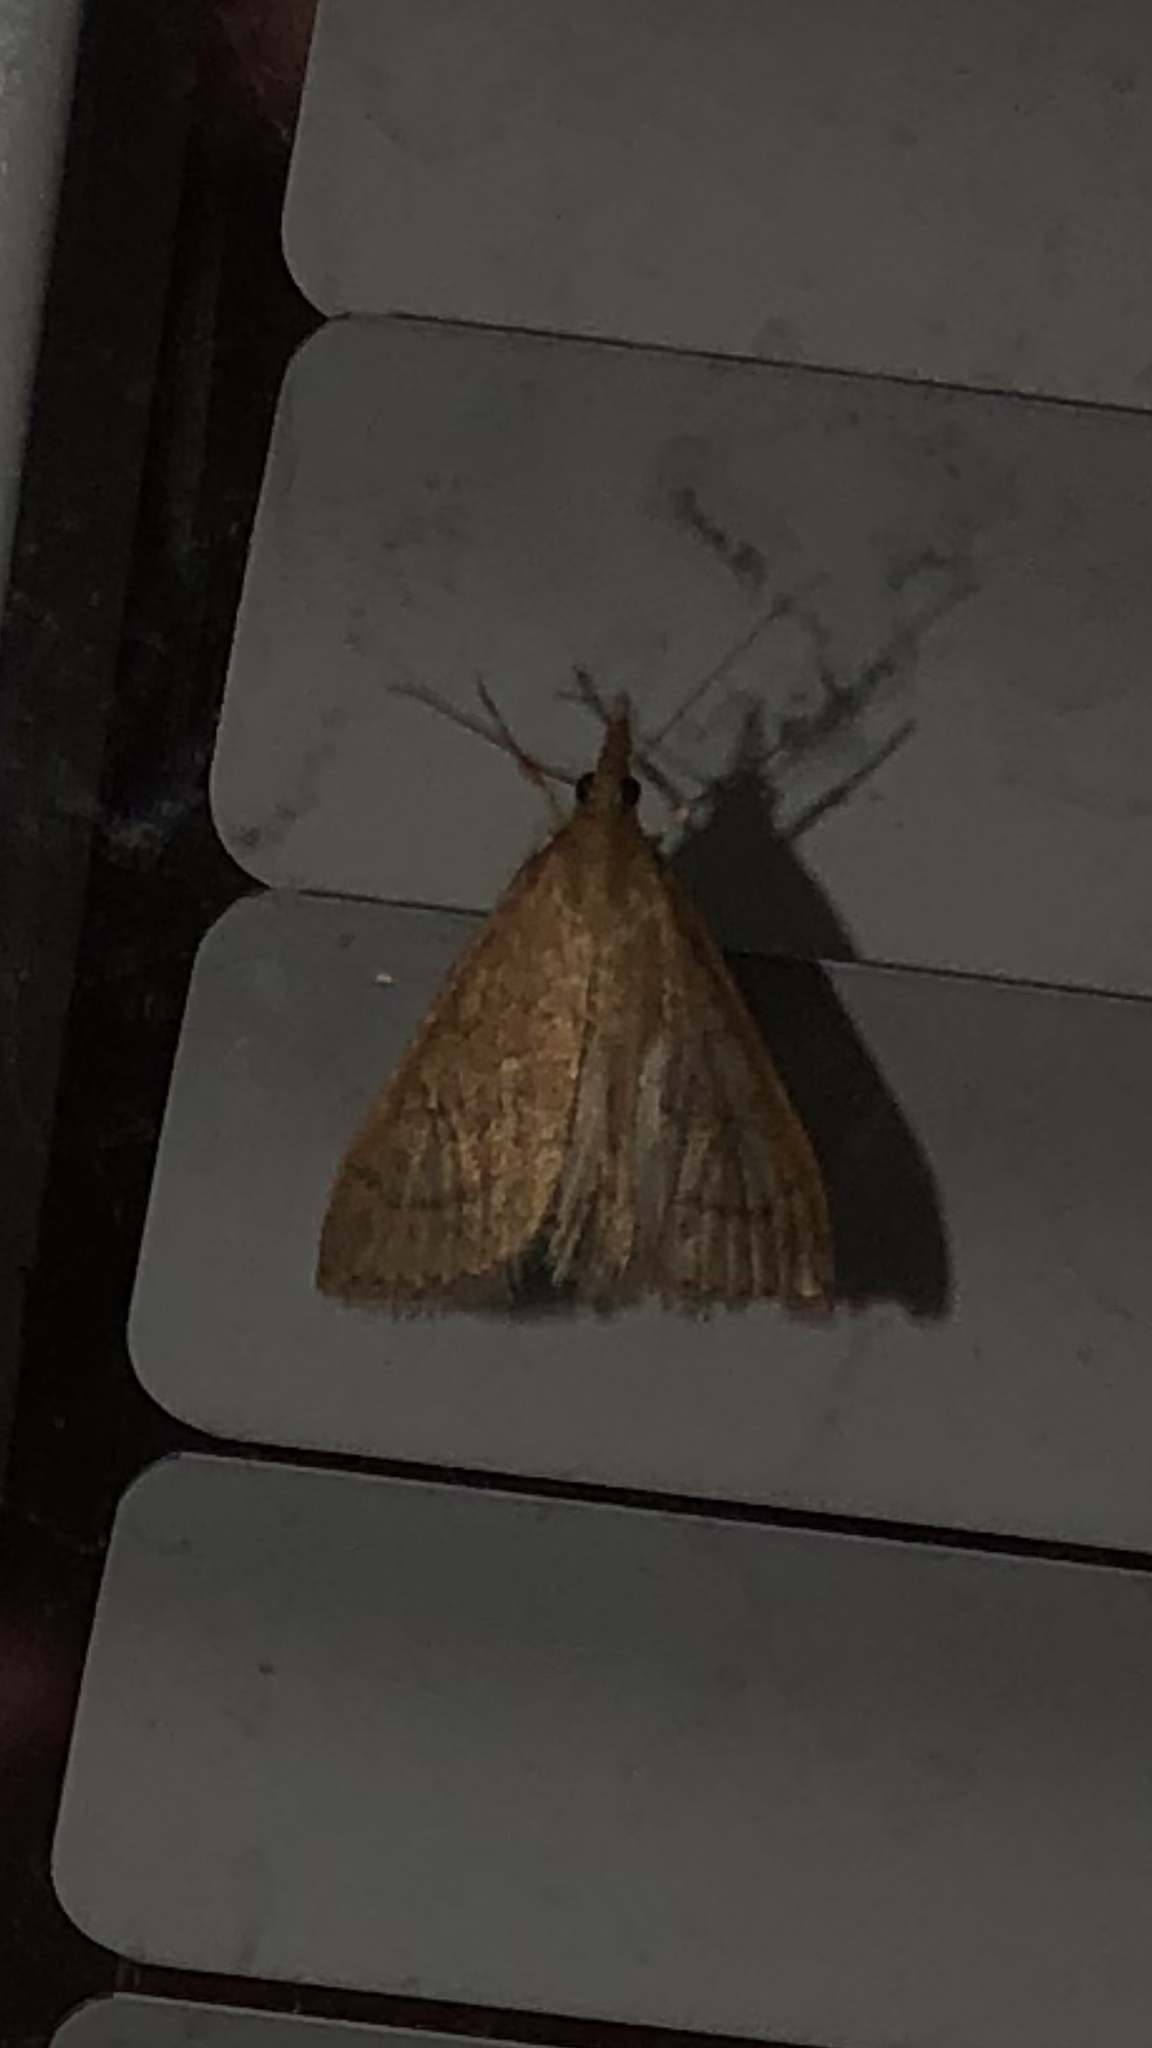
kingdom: Animalia
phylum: Arthropoda
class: Insecta
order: Lepidoptera
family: Crambidae
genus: Udea
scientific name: Udea rubigalis
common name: Celery leaftier moth
